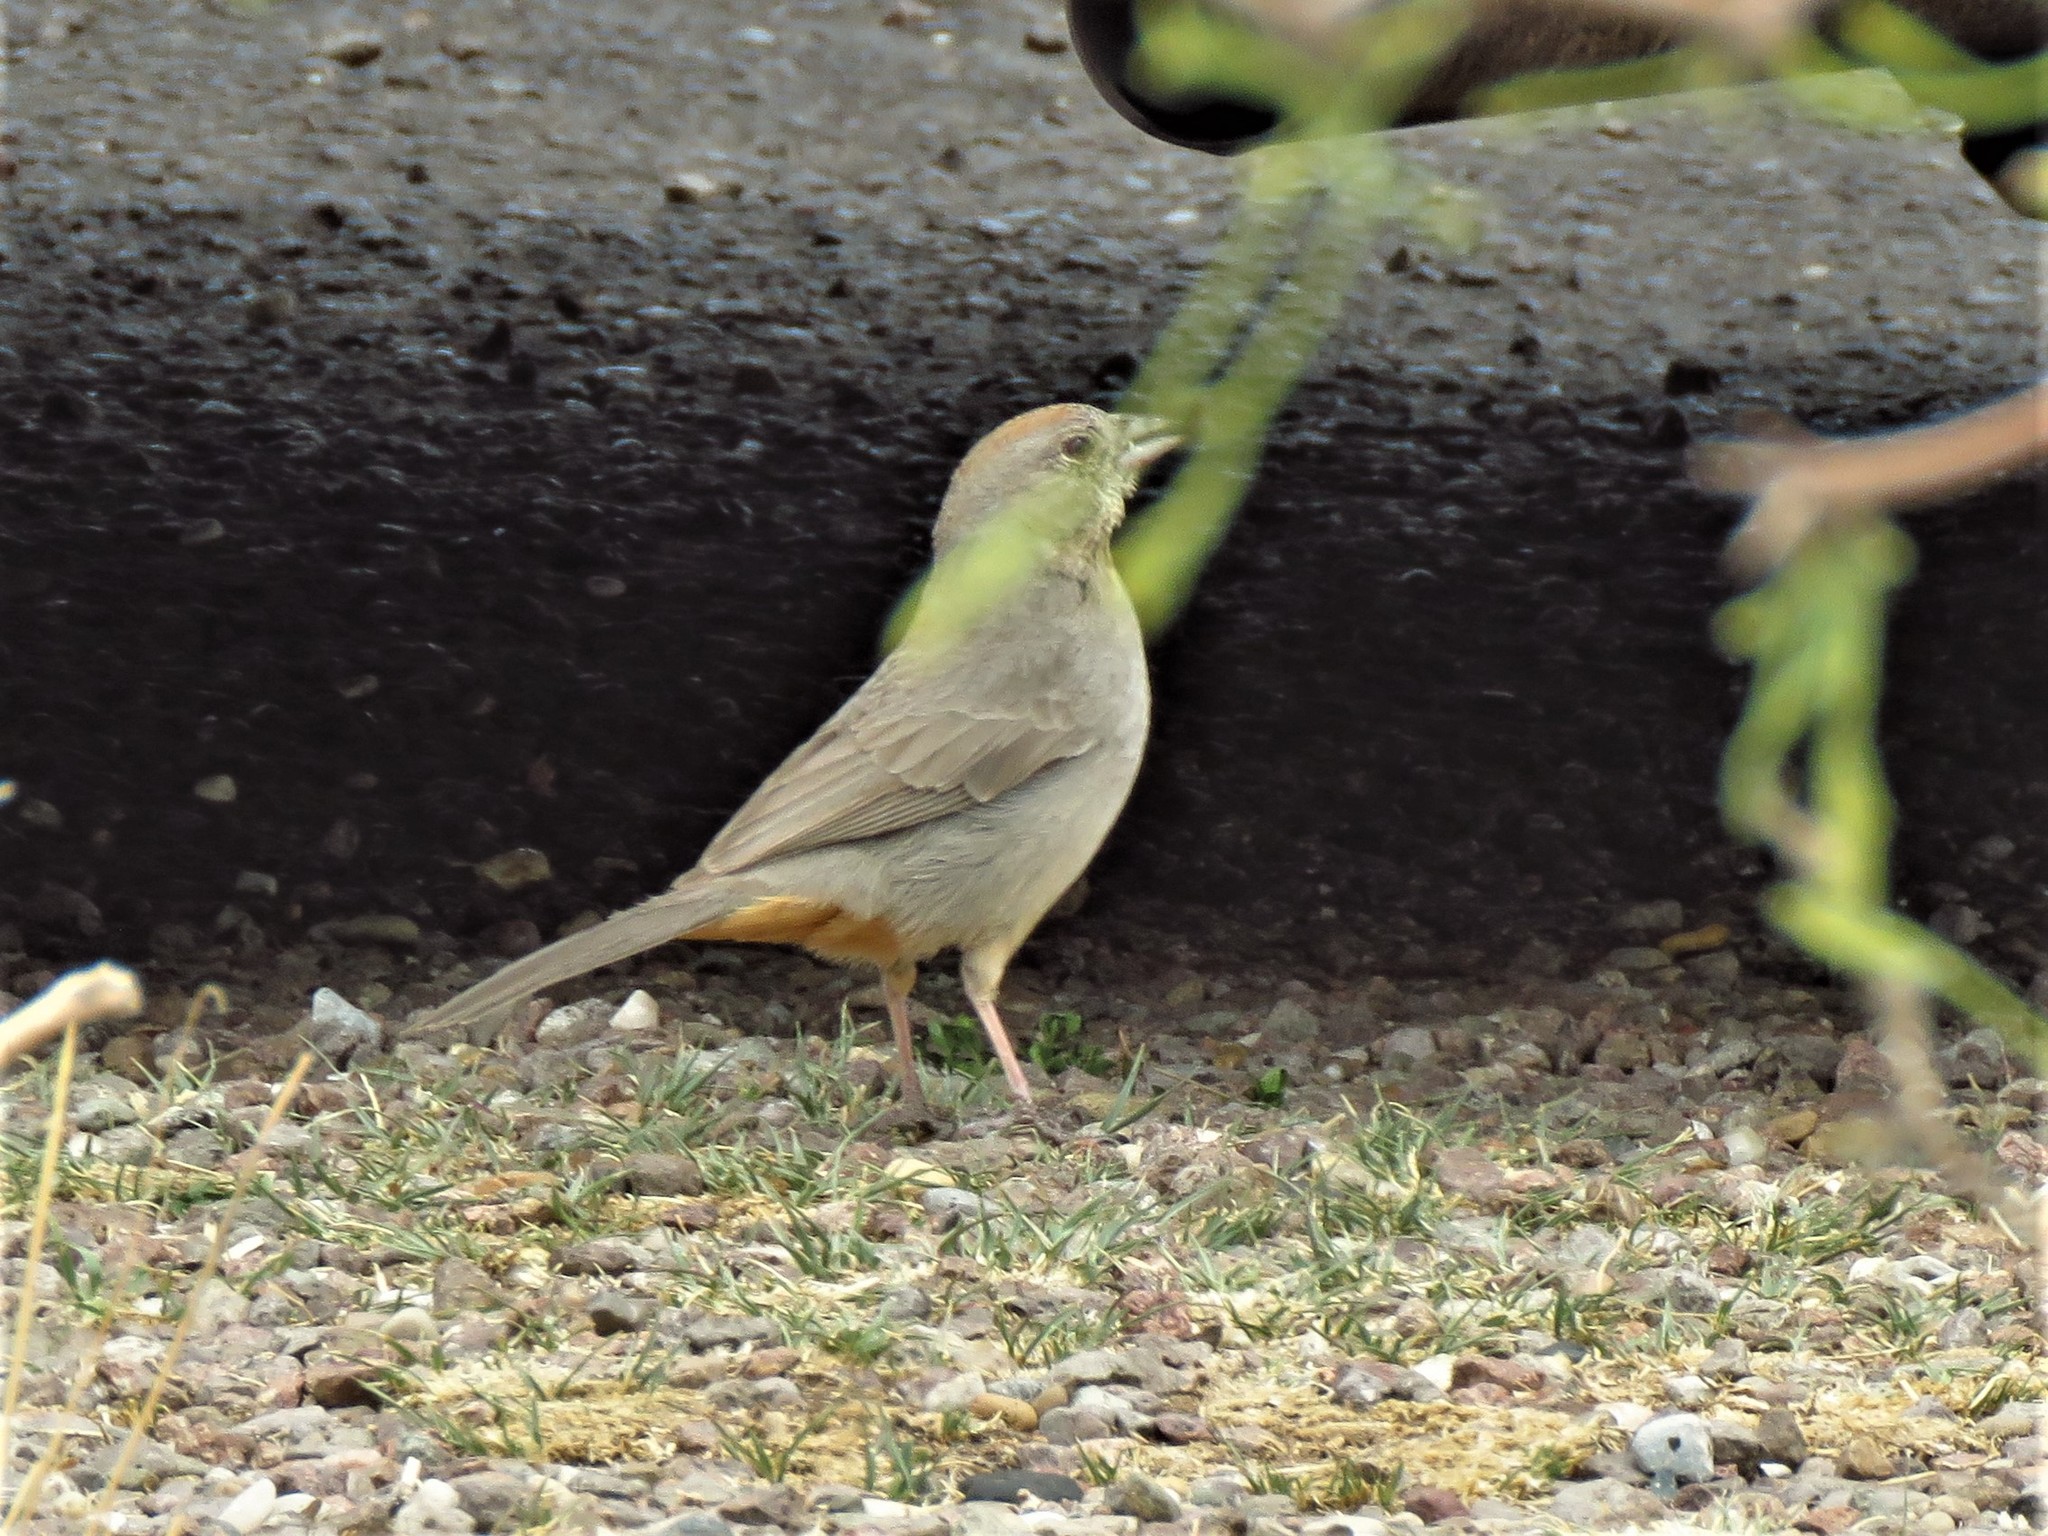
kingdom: Animalia
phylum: Chordata
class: Aves
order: Passeriformes
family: Passerellidae
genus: Melozone
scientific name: Melozone fusca
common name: Canyon towhee
